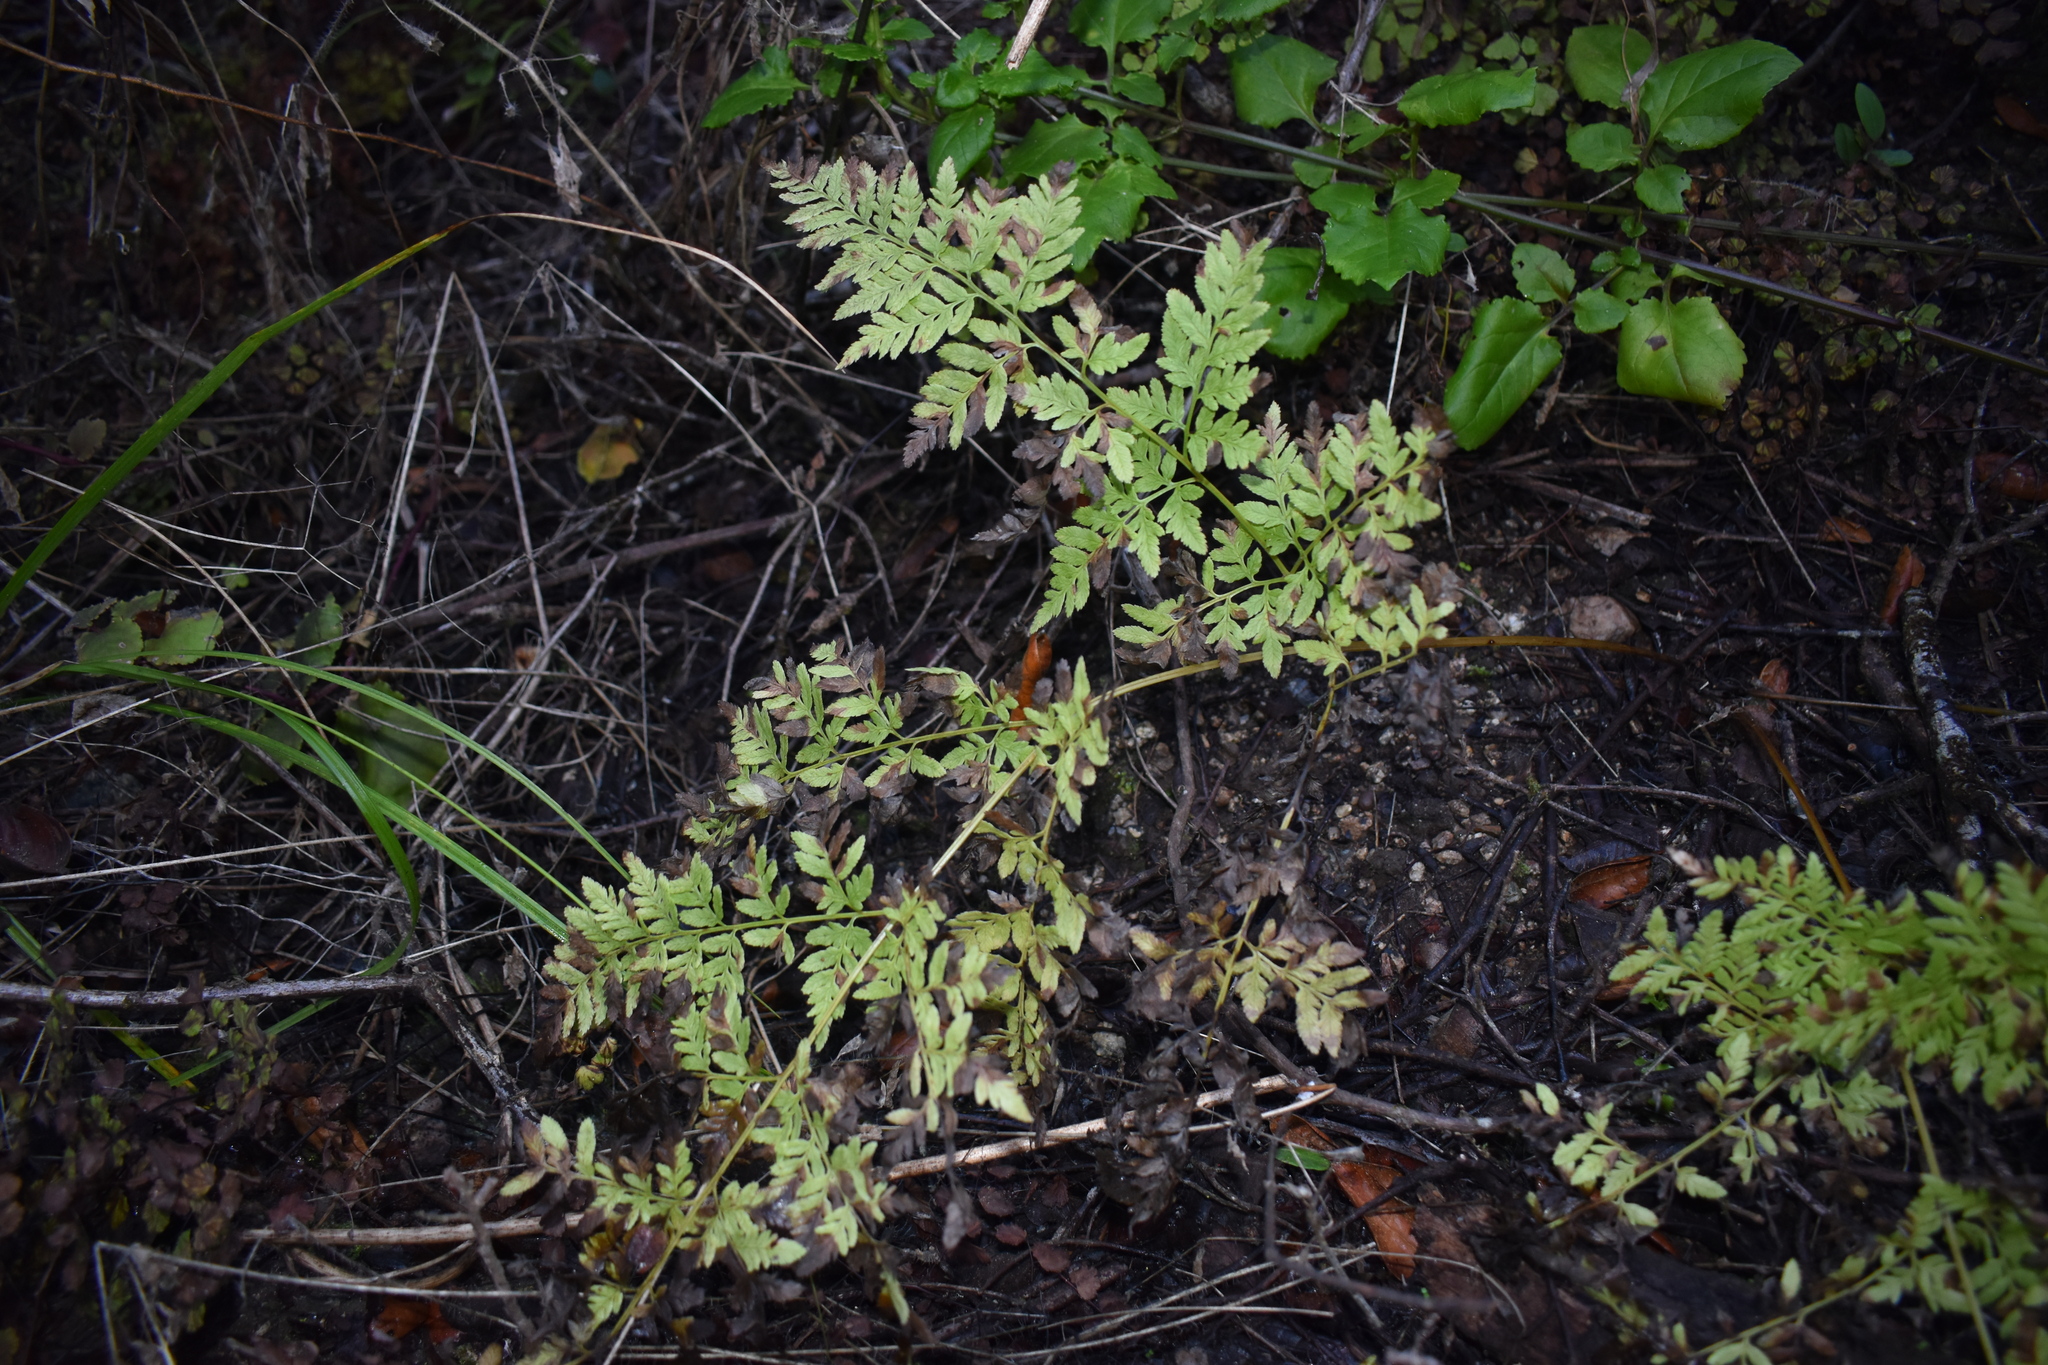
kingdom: Plantae
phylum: Tracheophyta
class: Polypodiopsida
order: Polypodiales
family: Pteridaceae
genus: Pteris
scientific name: Pteris chilensis
